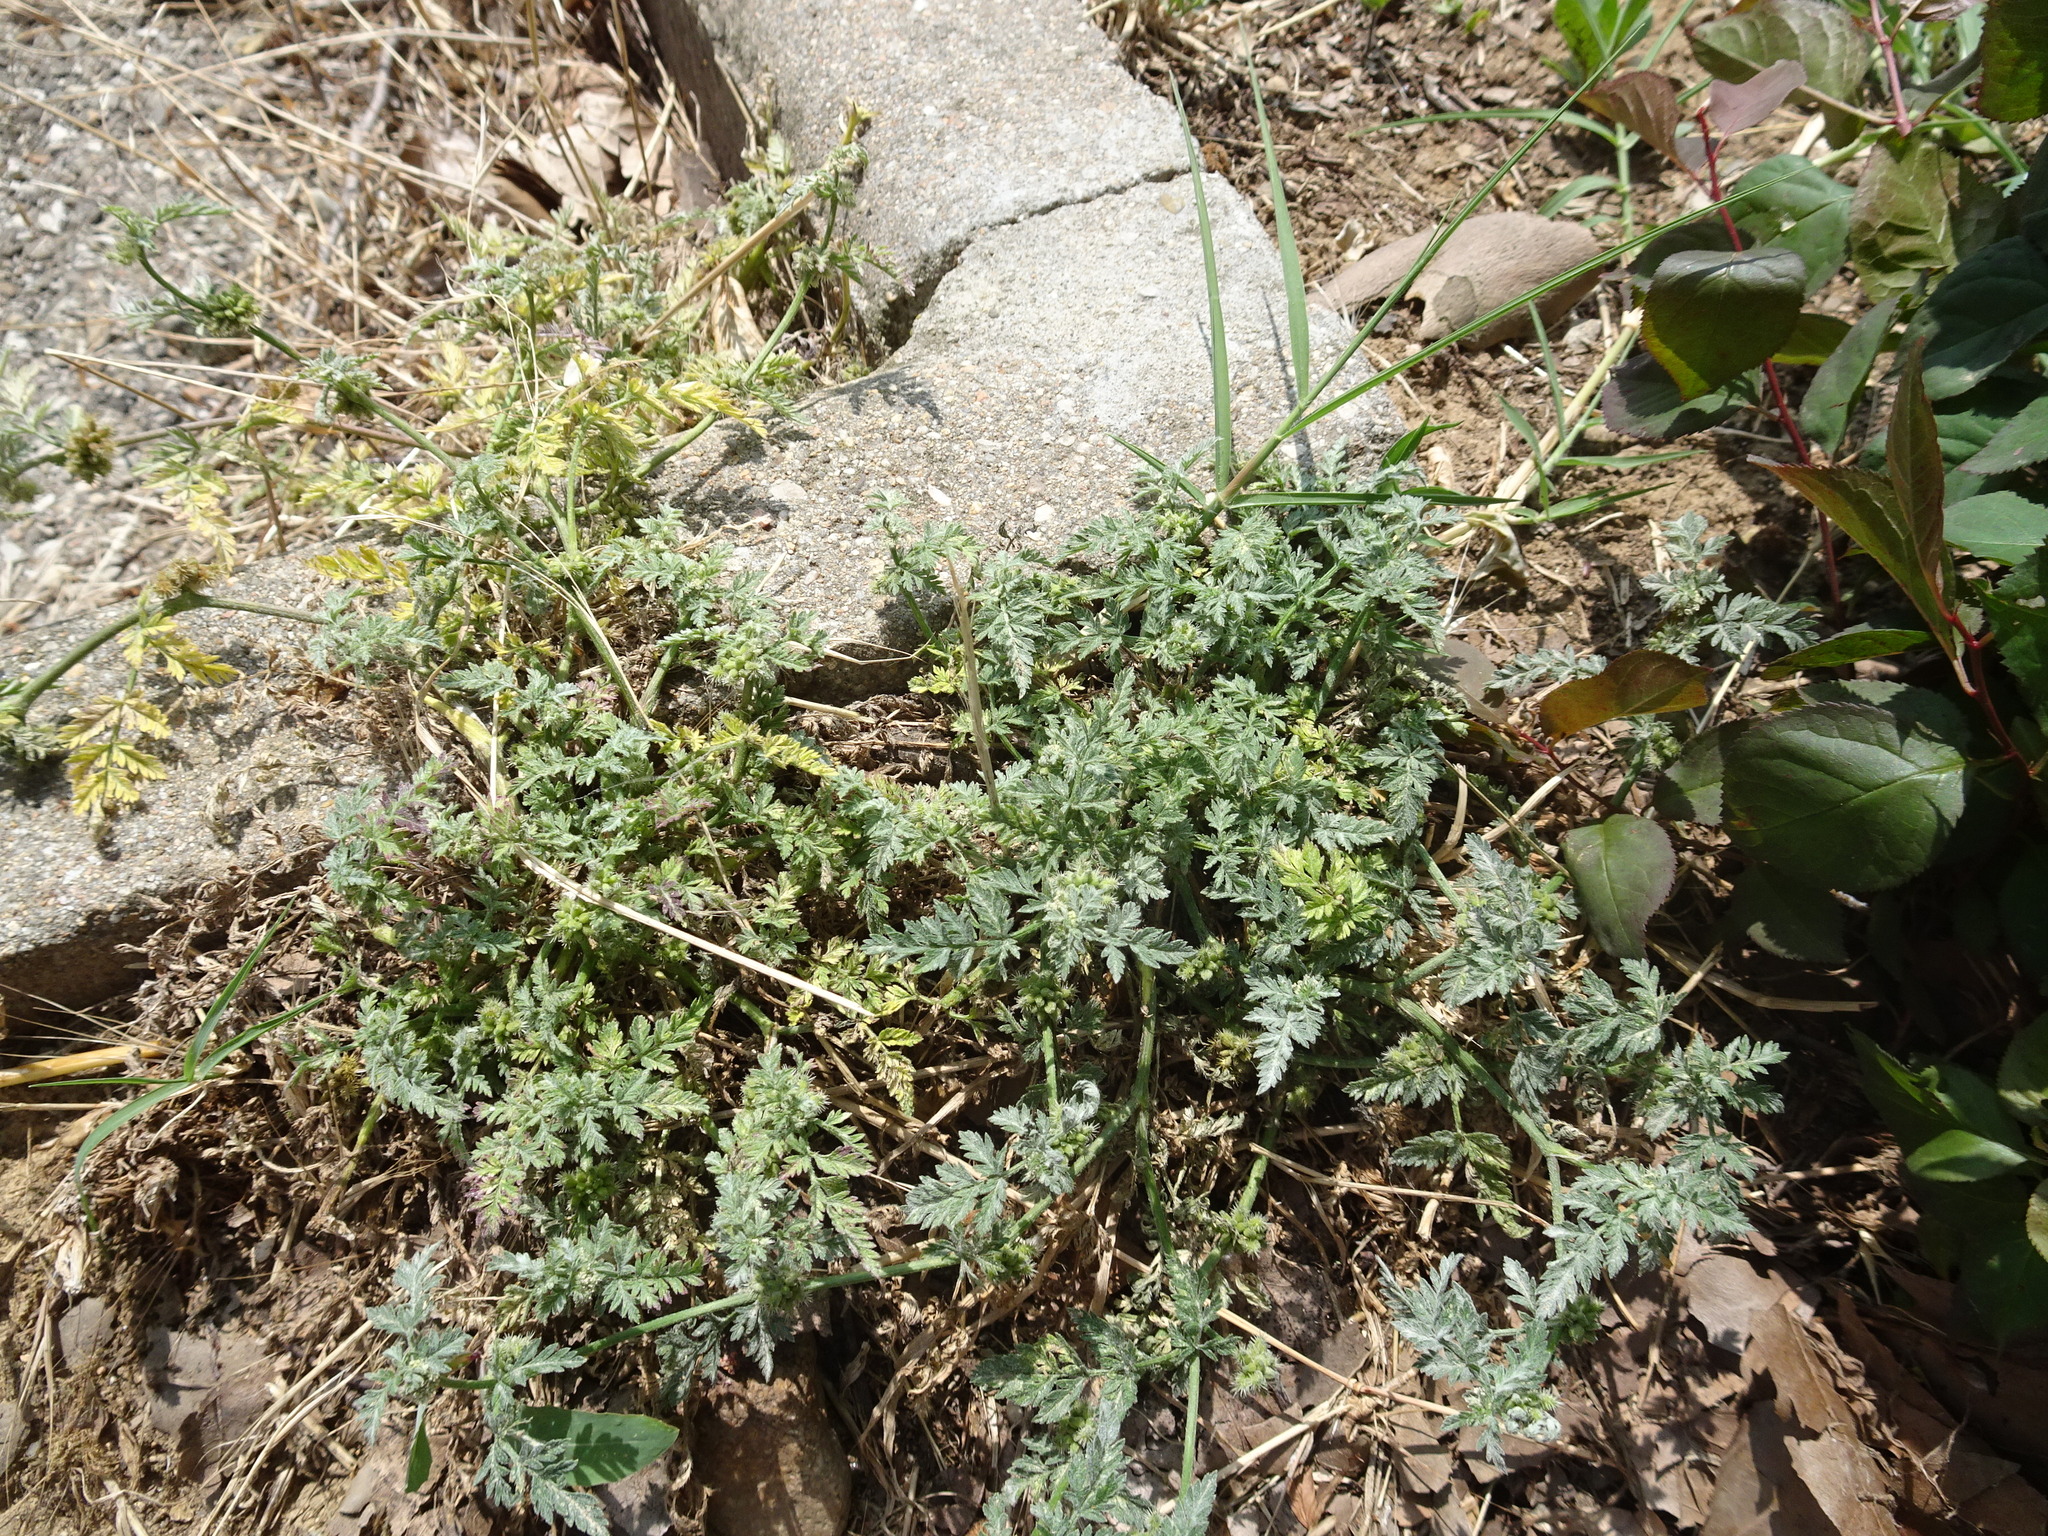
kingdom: Plantae
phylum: Tracheophyta
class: Magnoliopsida
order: Apiales
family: Apiaceae
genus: Torilis
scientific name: Torilis nodosa
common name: Knotted hedge-parsley
